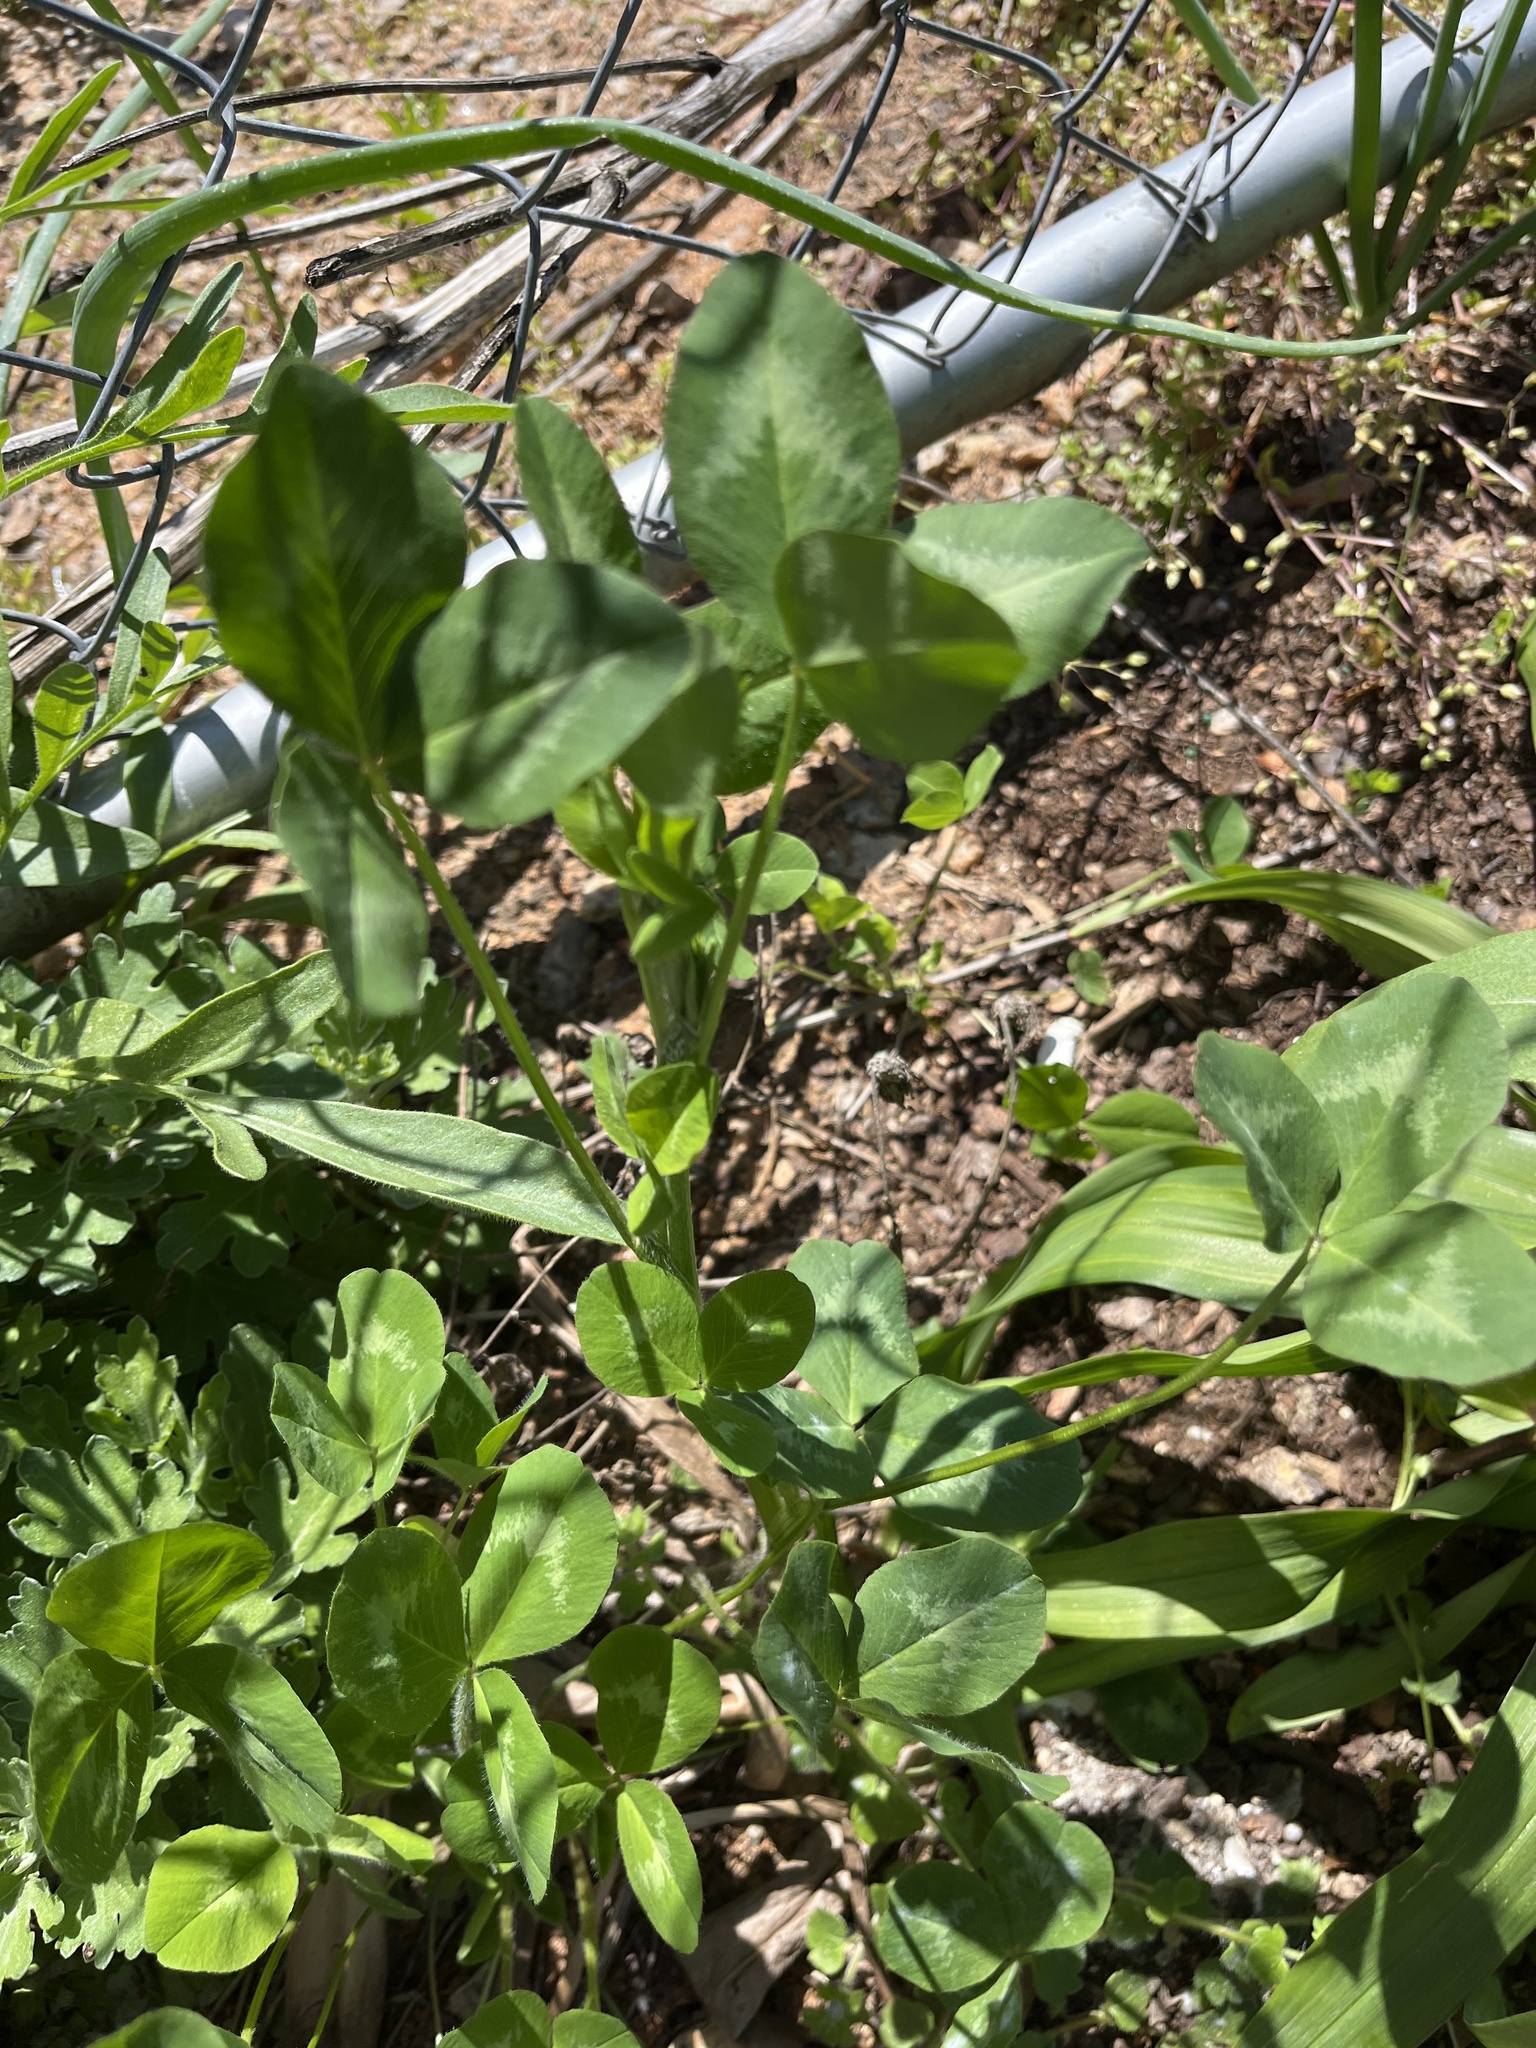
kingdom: Plantae
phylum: Tracheophyta
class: Magnoliopsida
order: Fabales
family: Fabaceae
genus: Trifolium
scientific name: Trifolium pratense
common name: Red clover
